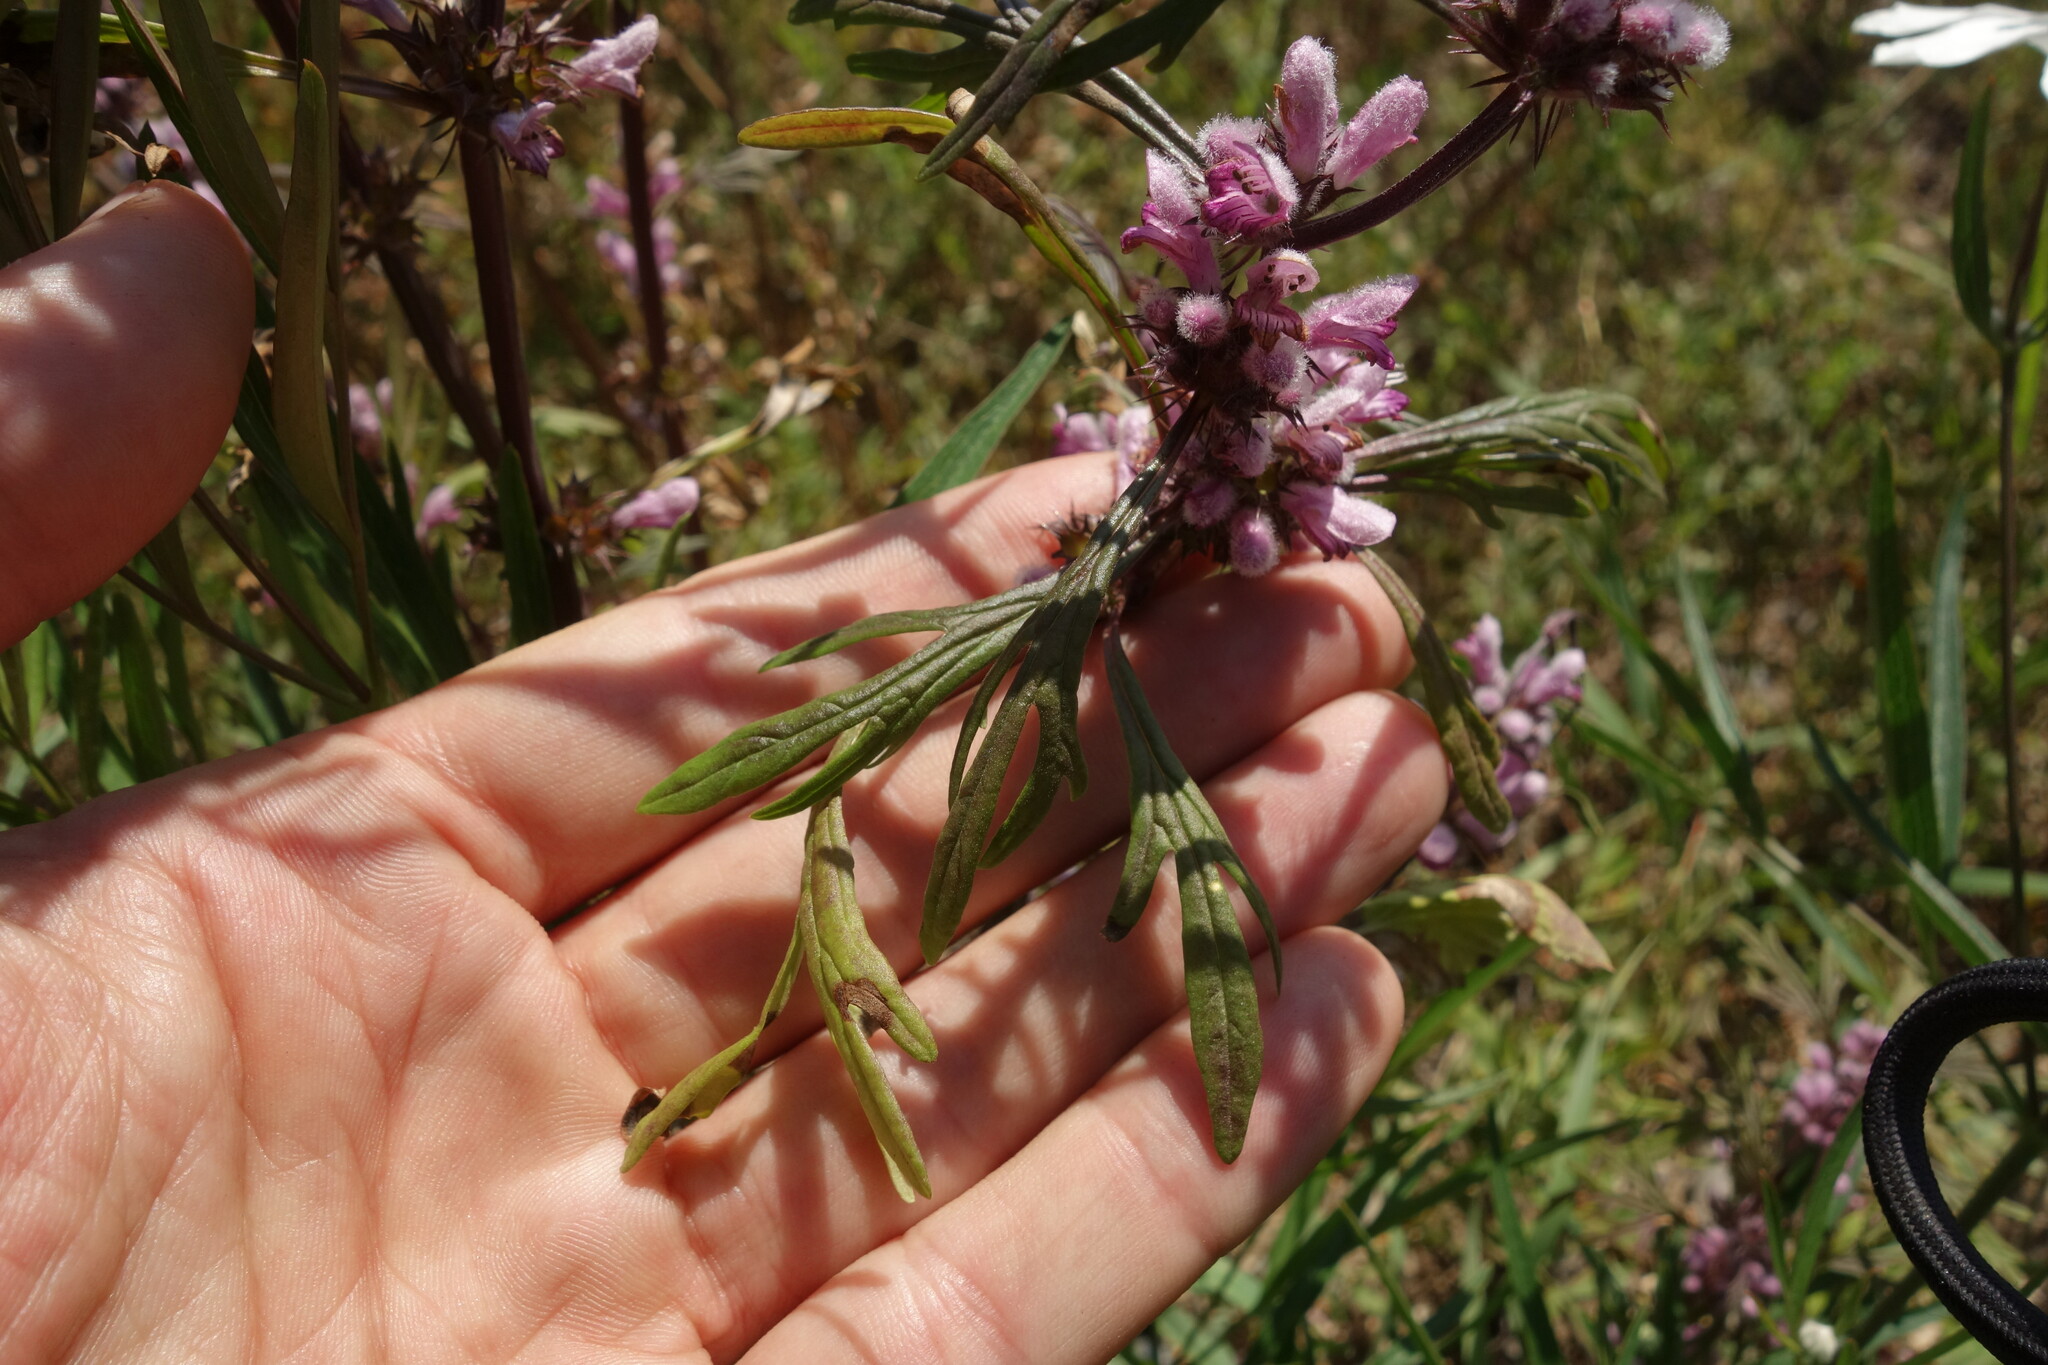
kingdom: Plantae
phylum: Tracheophyta
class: Magnoliopsida
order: Lamiales
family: Lamiaceae
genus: Leonurus
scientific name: Leonurus sibiricus
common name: Honeyweed
